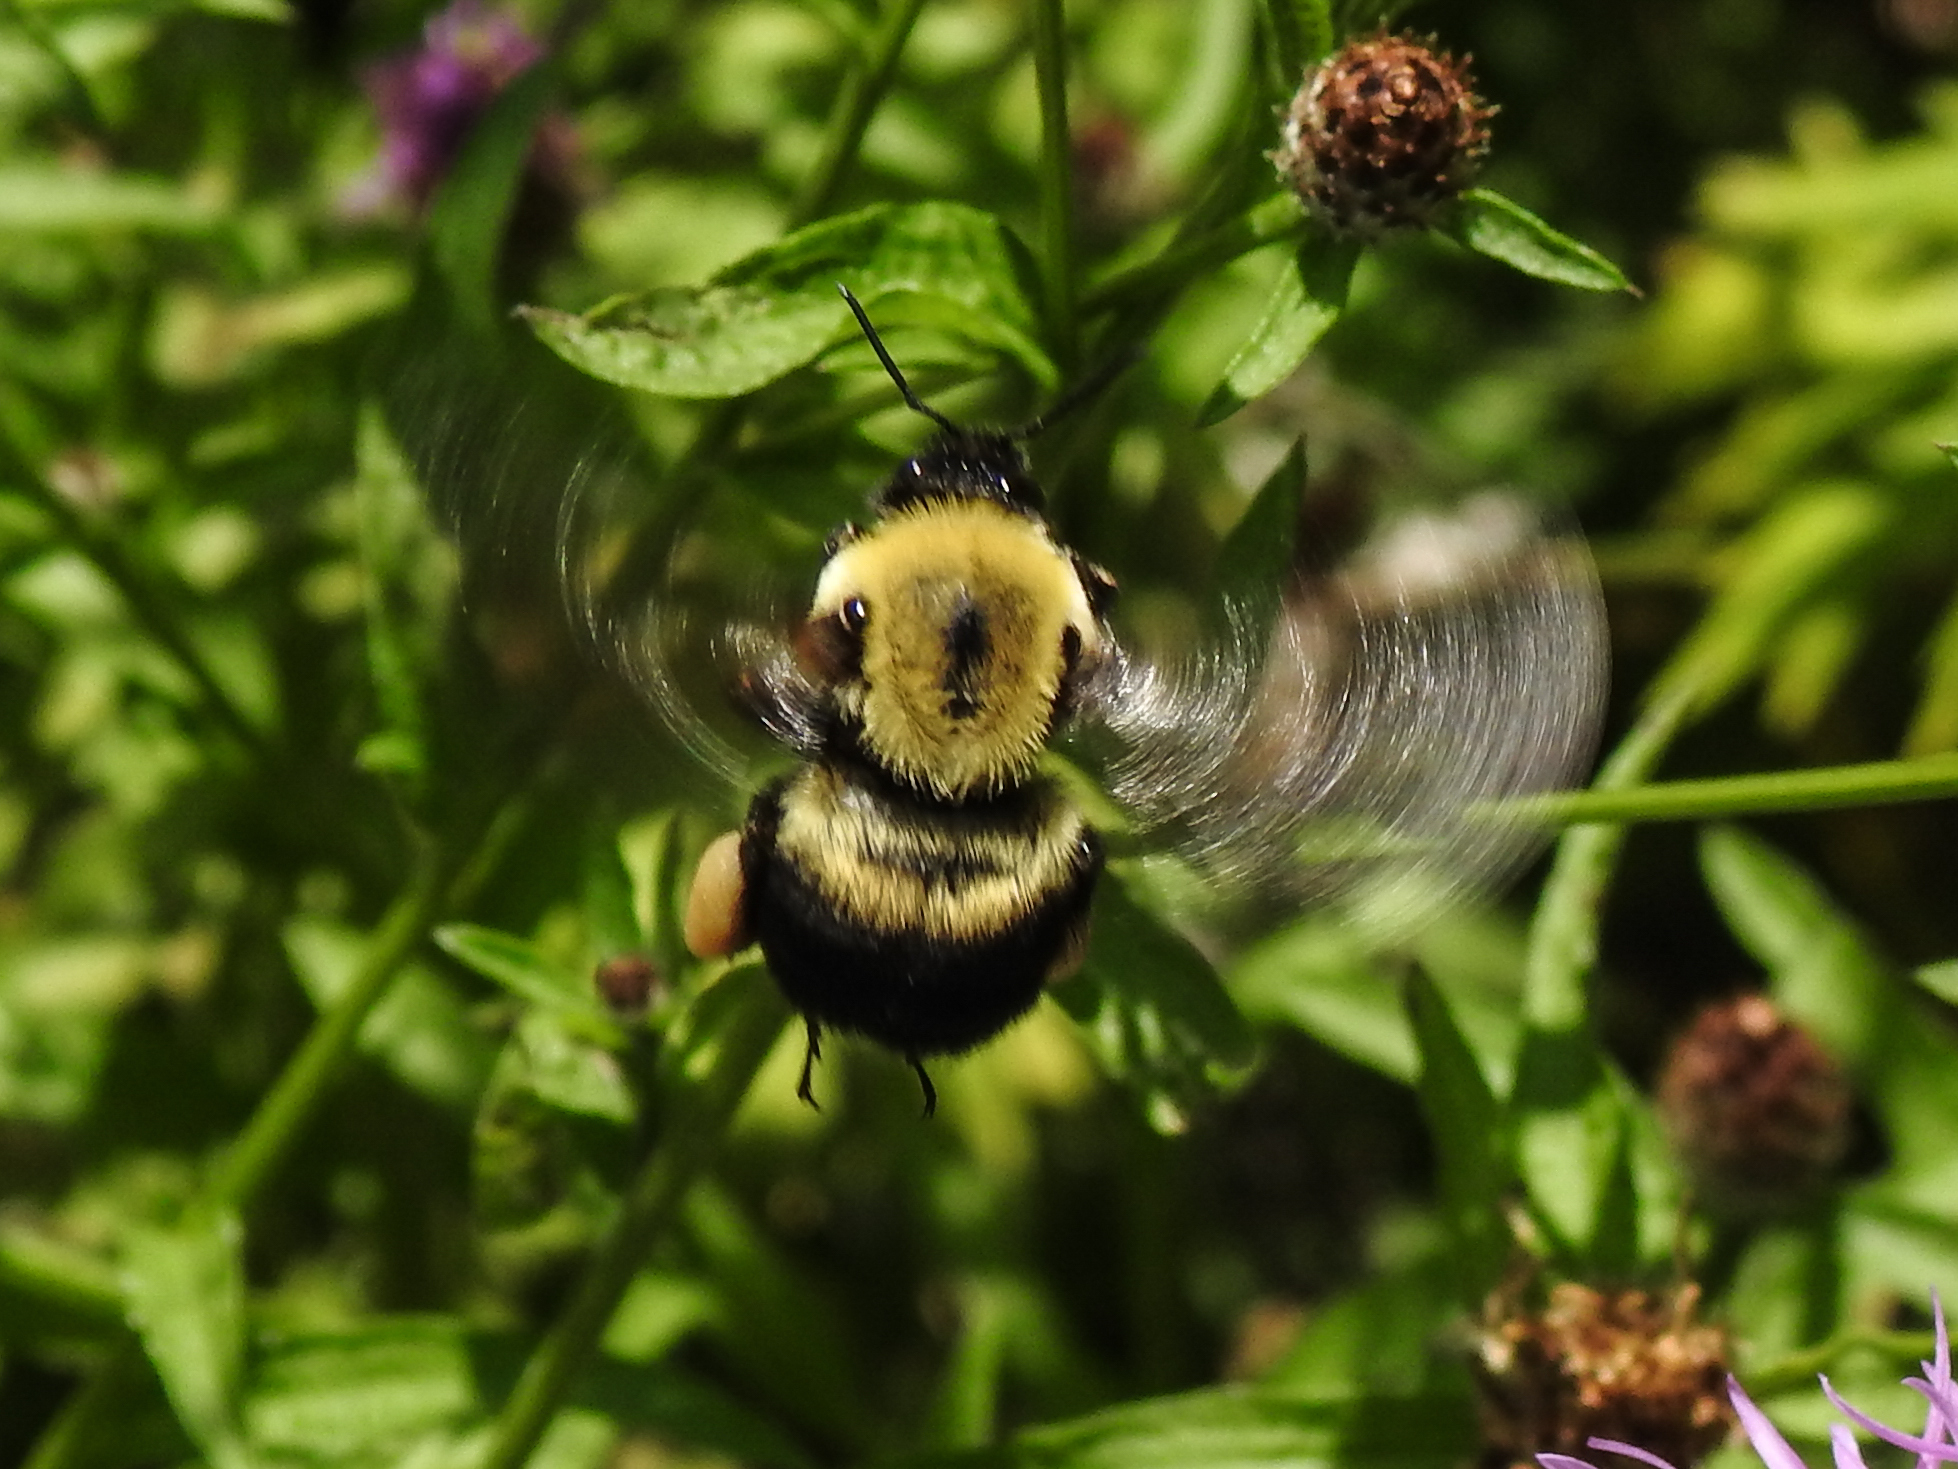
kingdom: Animalia
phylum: Arthropoda
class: Insecta
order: Hymenoptera
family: Apidae
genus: Bombus
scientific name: Bombus griseocollis
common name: Brown-belted bumble bee
